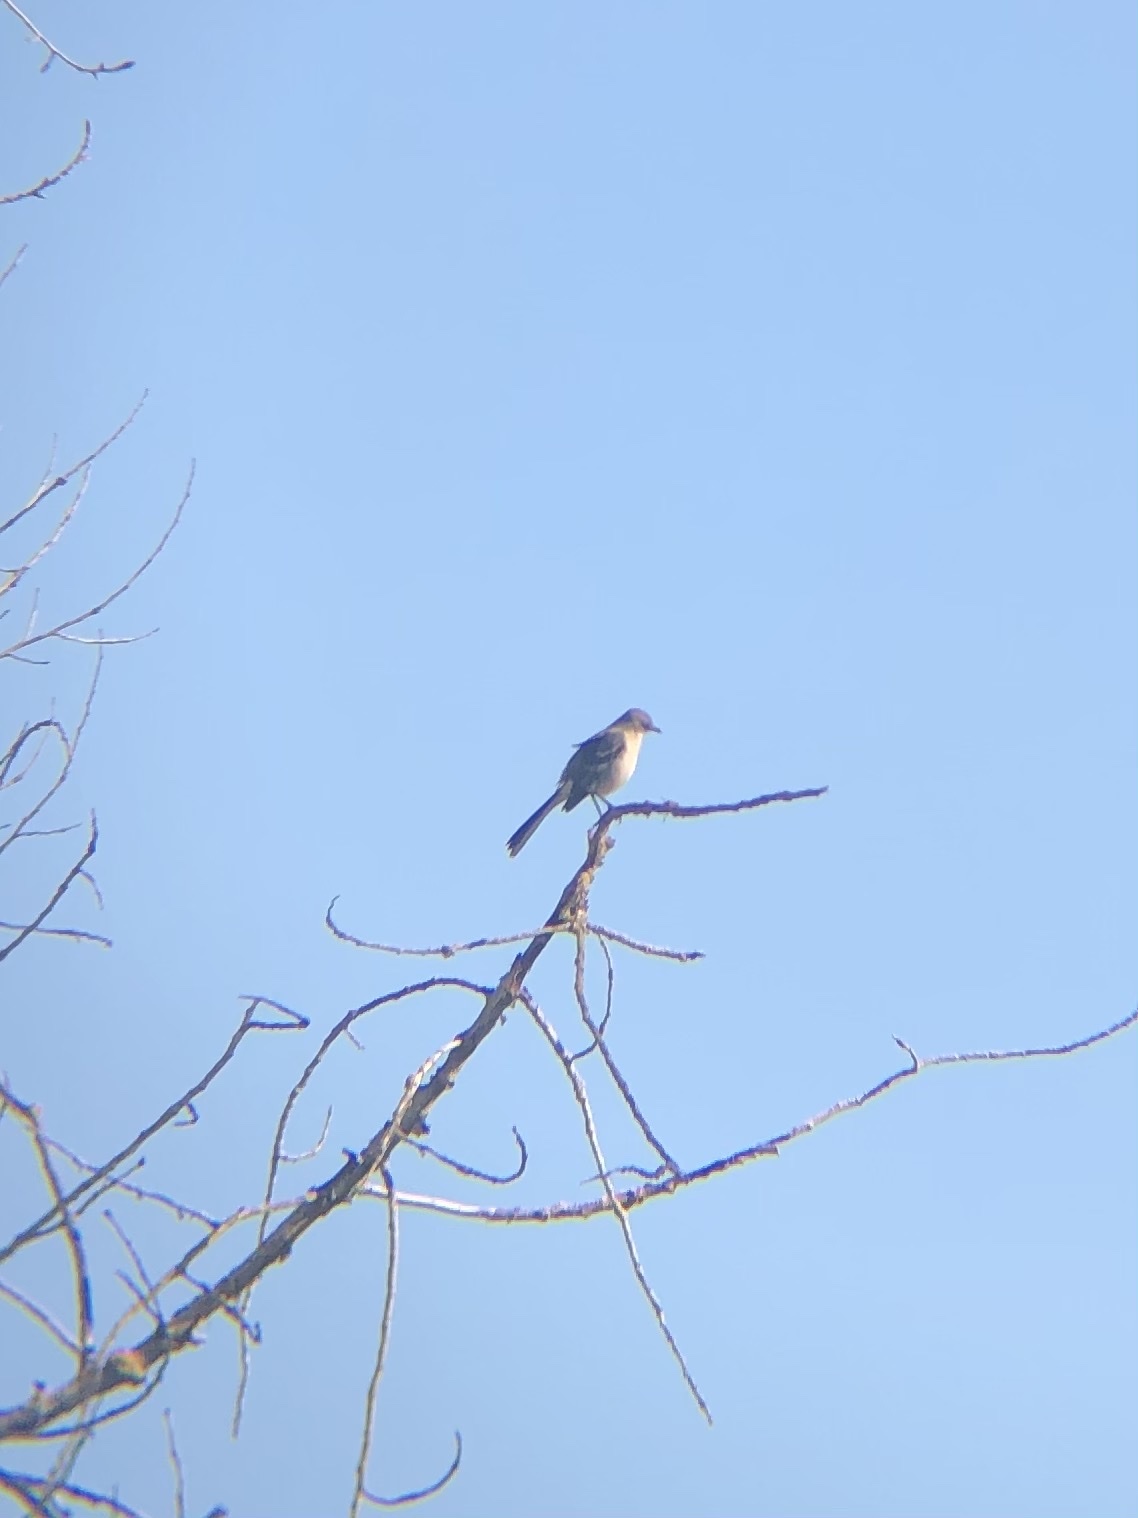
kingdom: Animalia
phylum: Chordata
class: Aves
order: Passeriformes
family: Mimidae
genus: Mimus
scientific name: Mimus polyglottos
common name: Northern mockingbird
